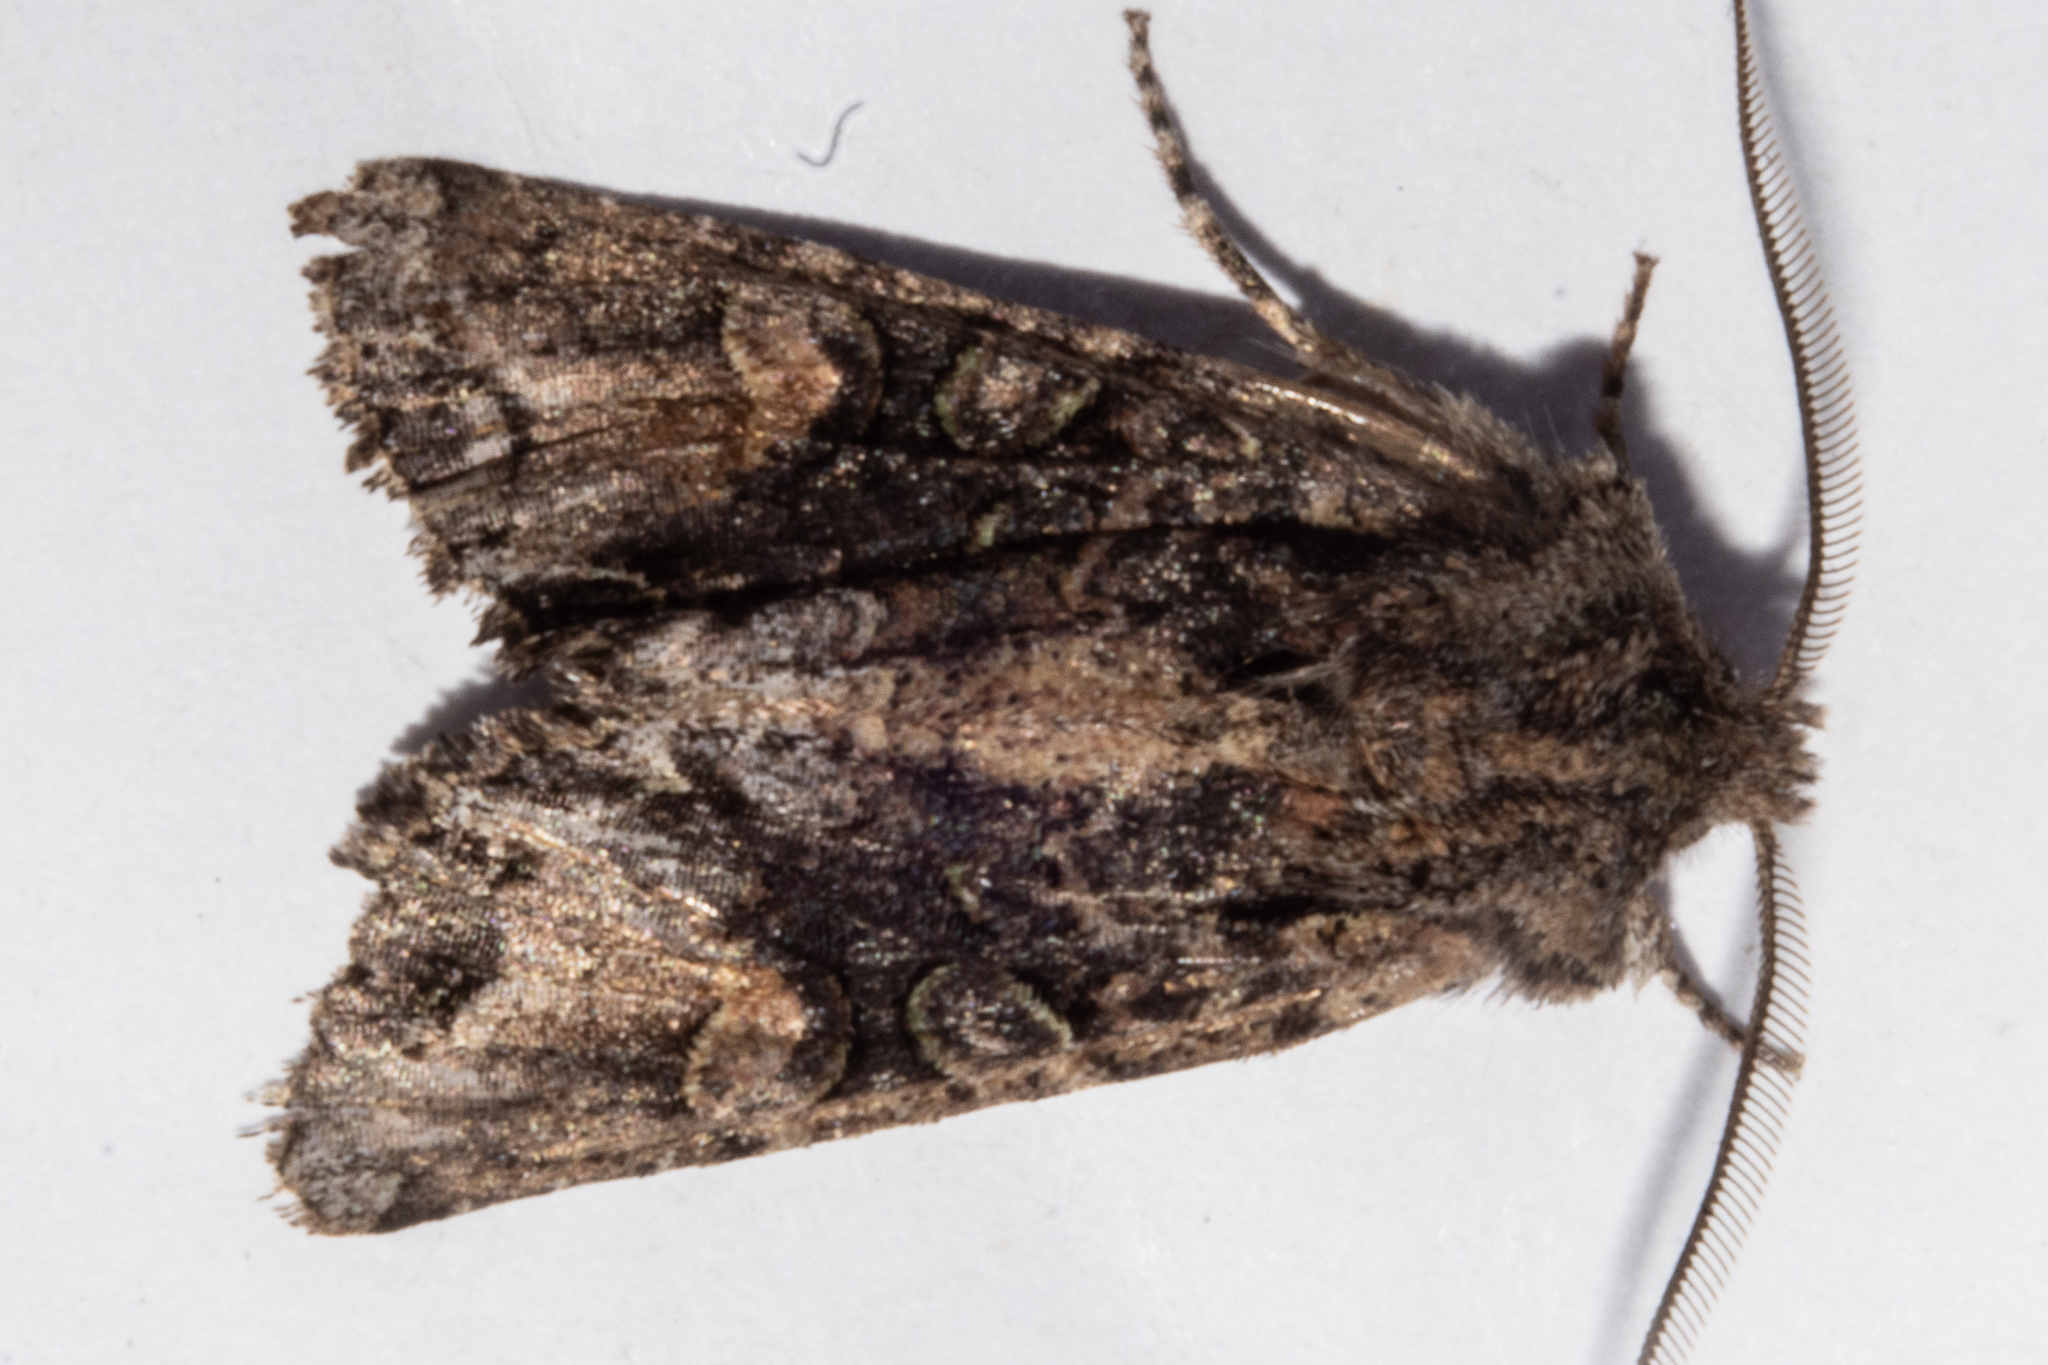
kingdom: Animalia
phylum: Arthropoda
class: Insecta
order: Lepidoptera
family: Noctuidae
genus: Ichneutica
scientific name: Ichneutica
